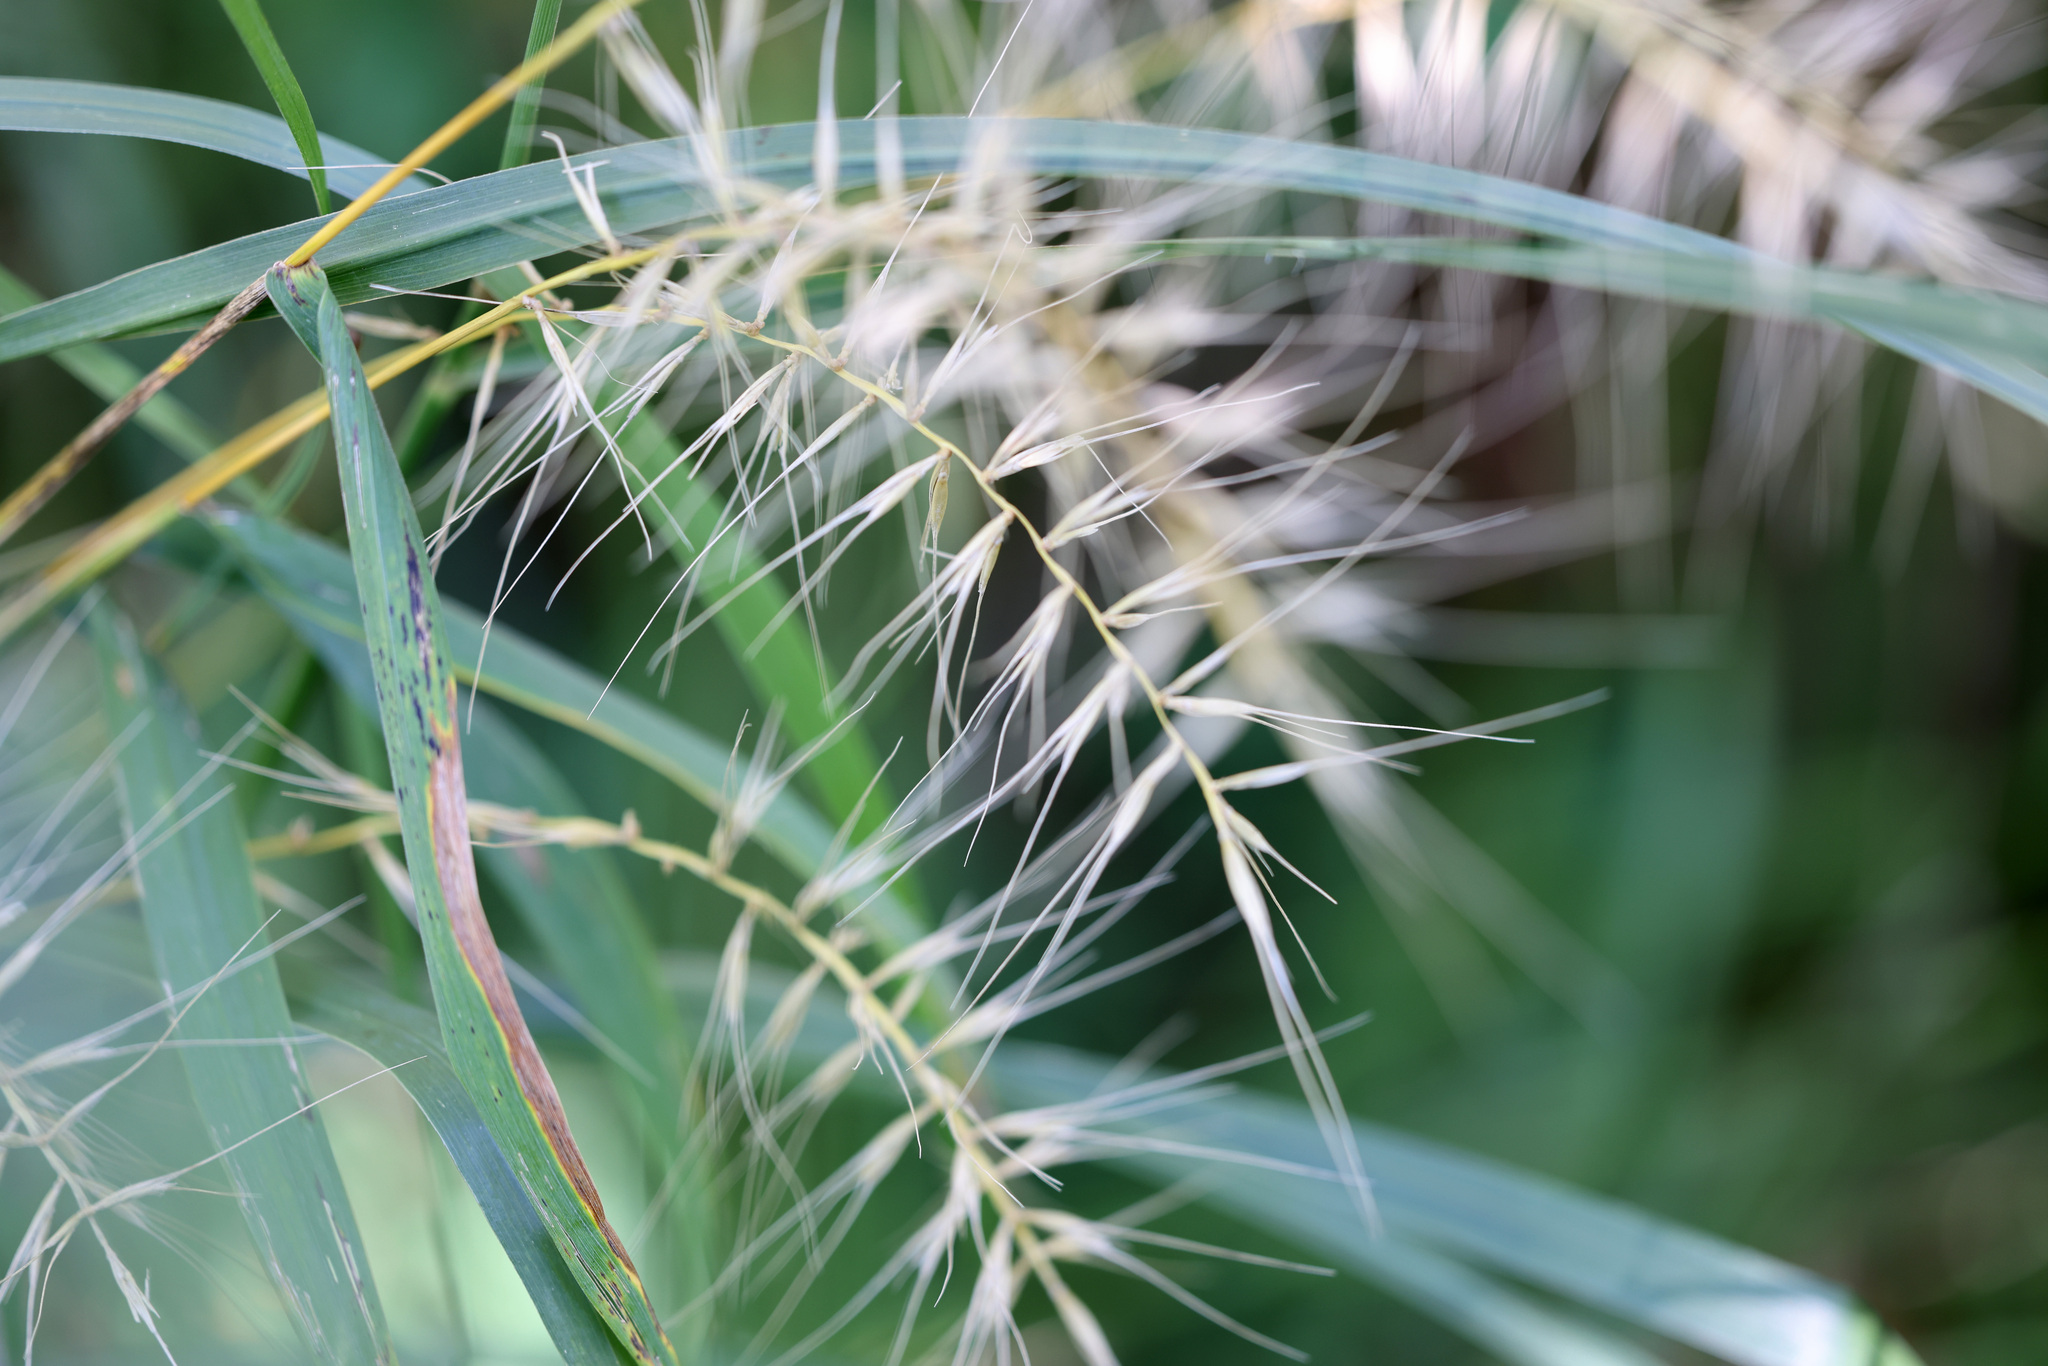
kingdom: Plantae
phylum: Tracheophyta
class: Liliopsida
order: Poales
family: Poaceae
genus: Elymus
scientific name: Elymus hystrix
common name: Bottlebrush grass
